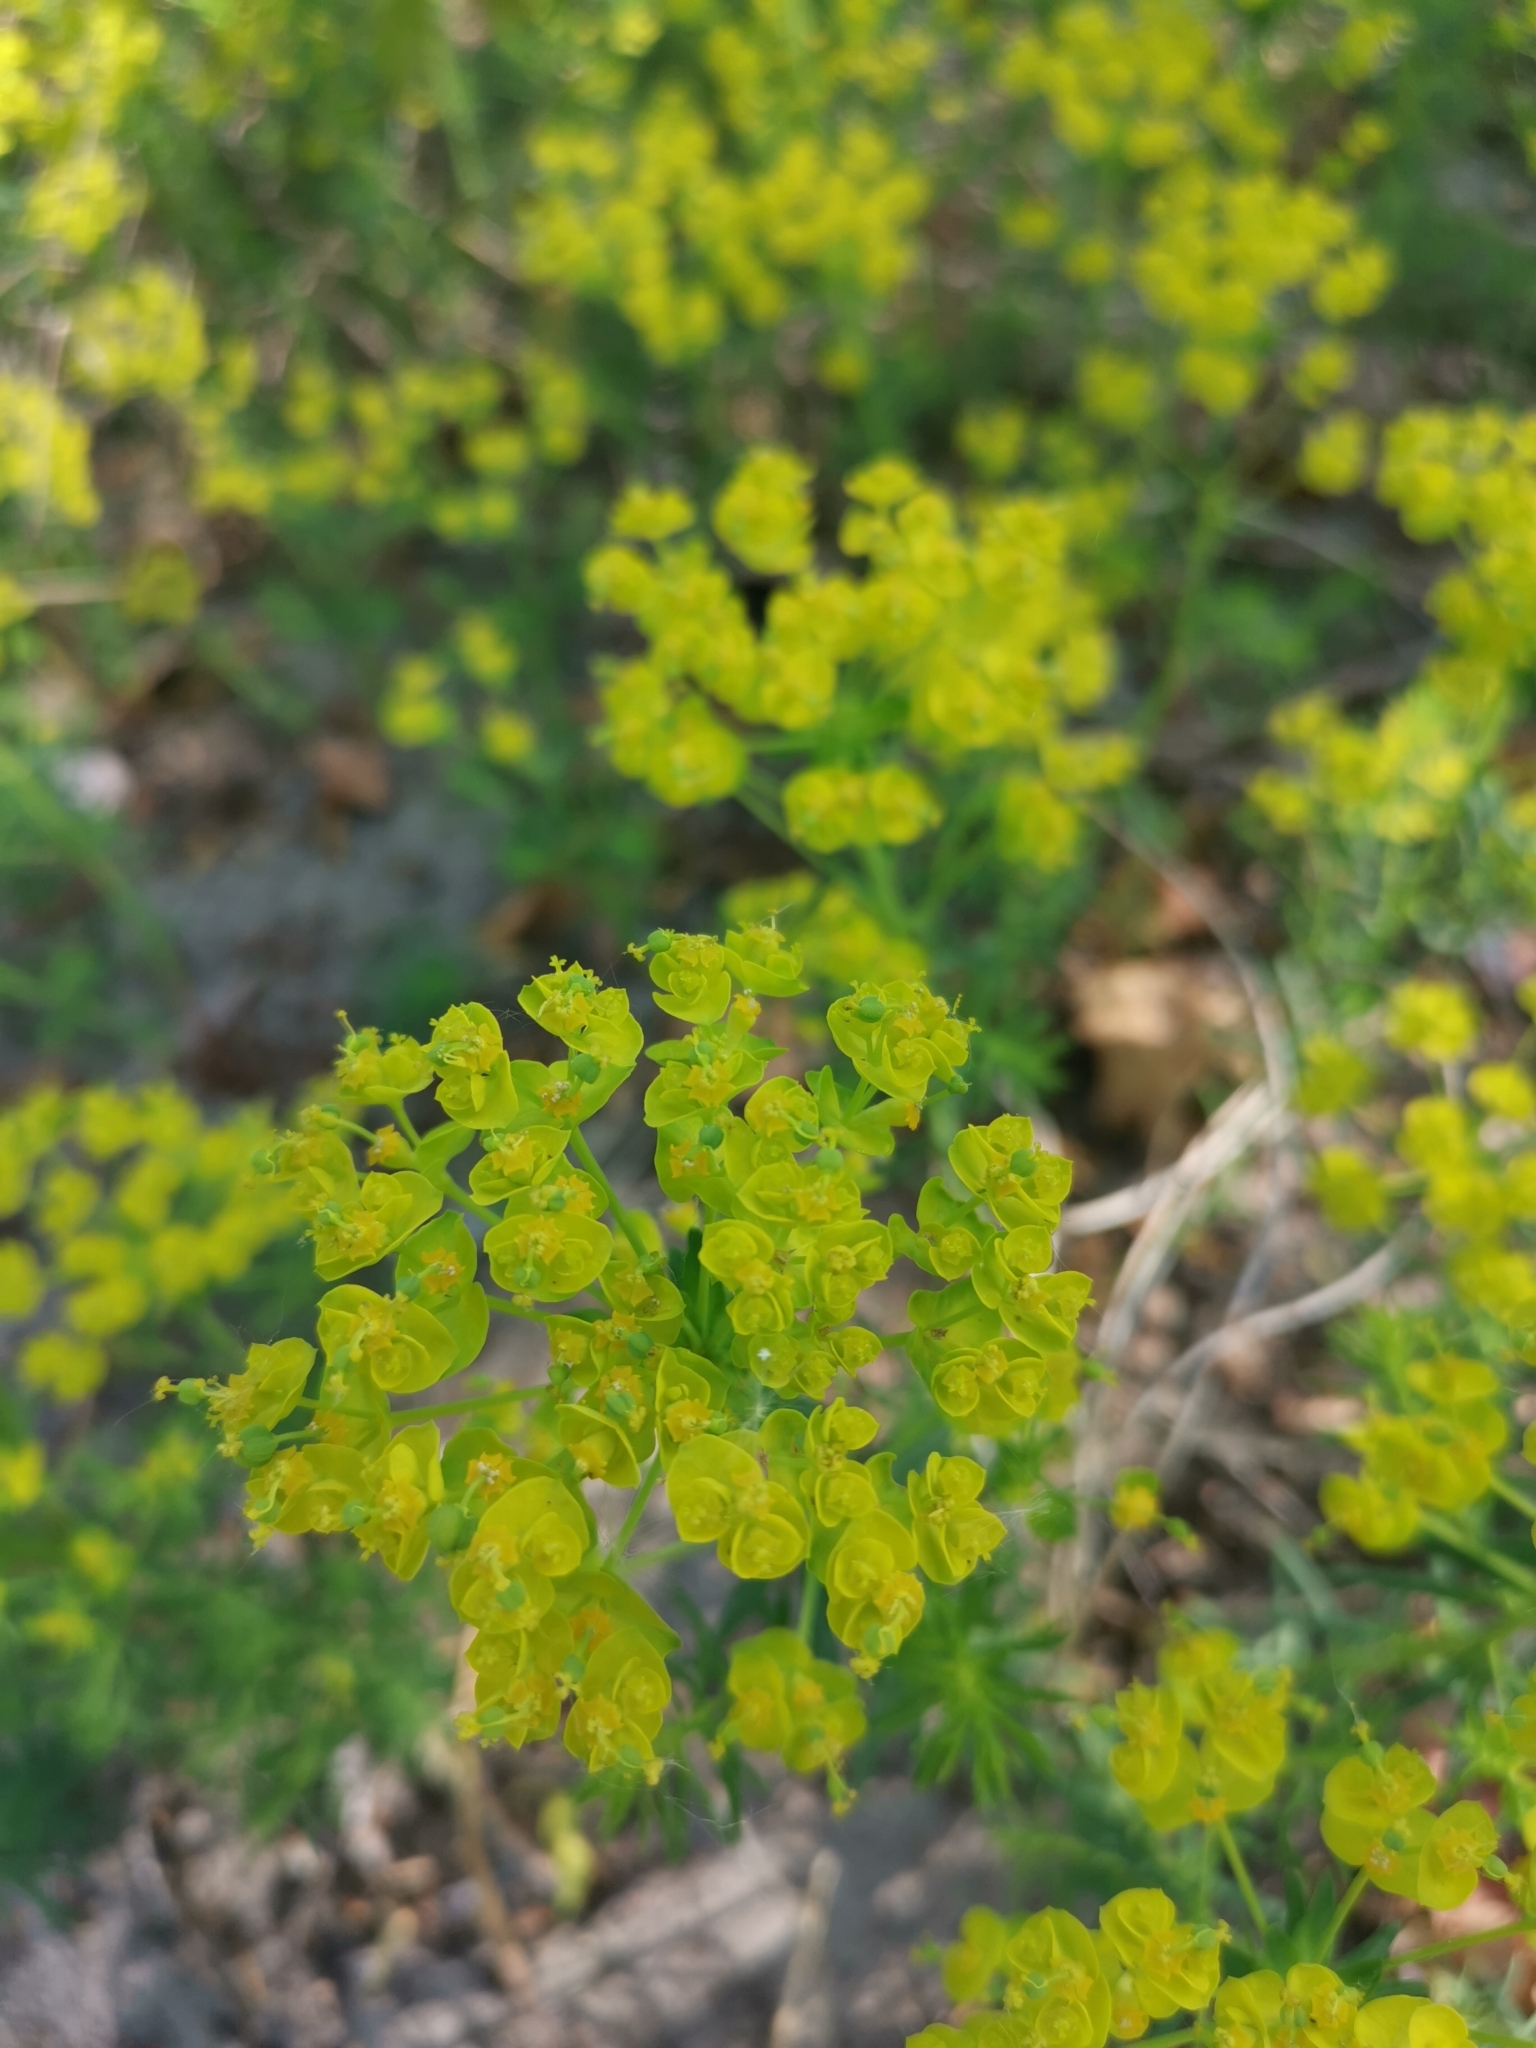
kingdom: Plantae
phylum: Tracheophyta
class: Magnoliopsida
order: Malpighiales
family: Euphorbiaceae
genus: Euphorbia
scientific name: Euphorbia cyparissias
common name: Cypress spurge
